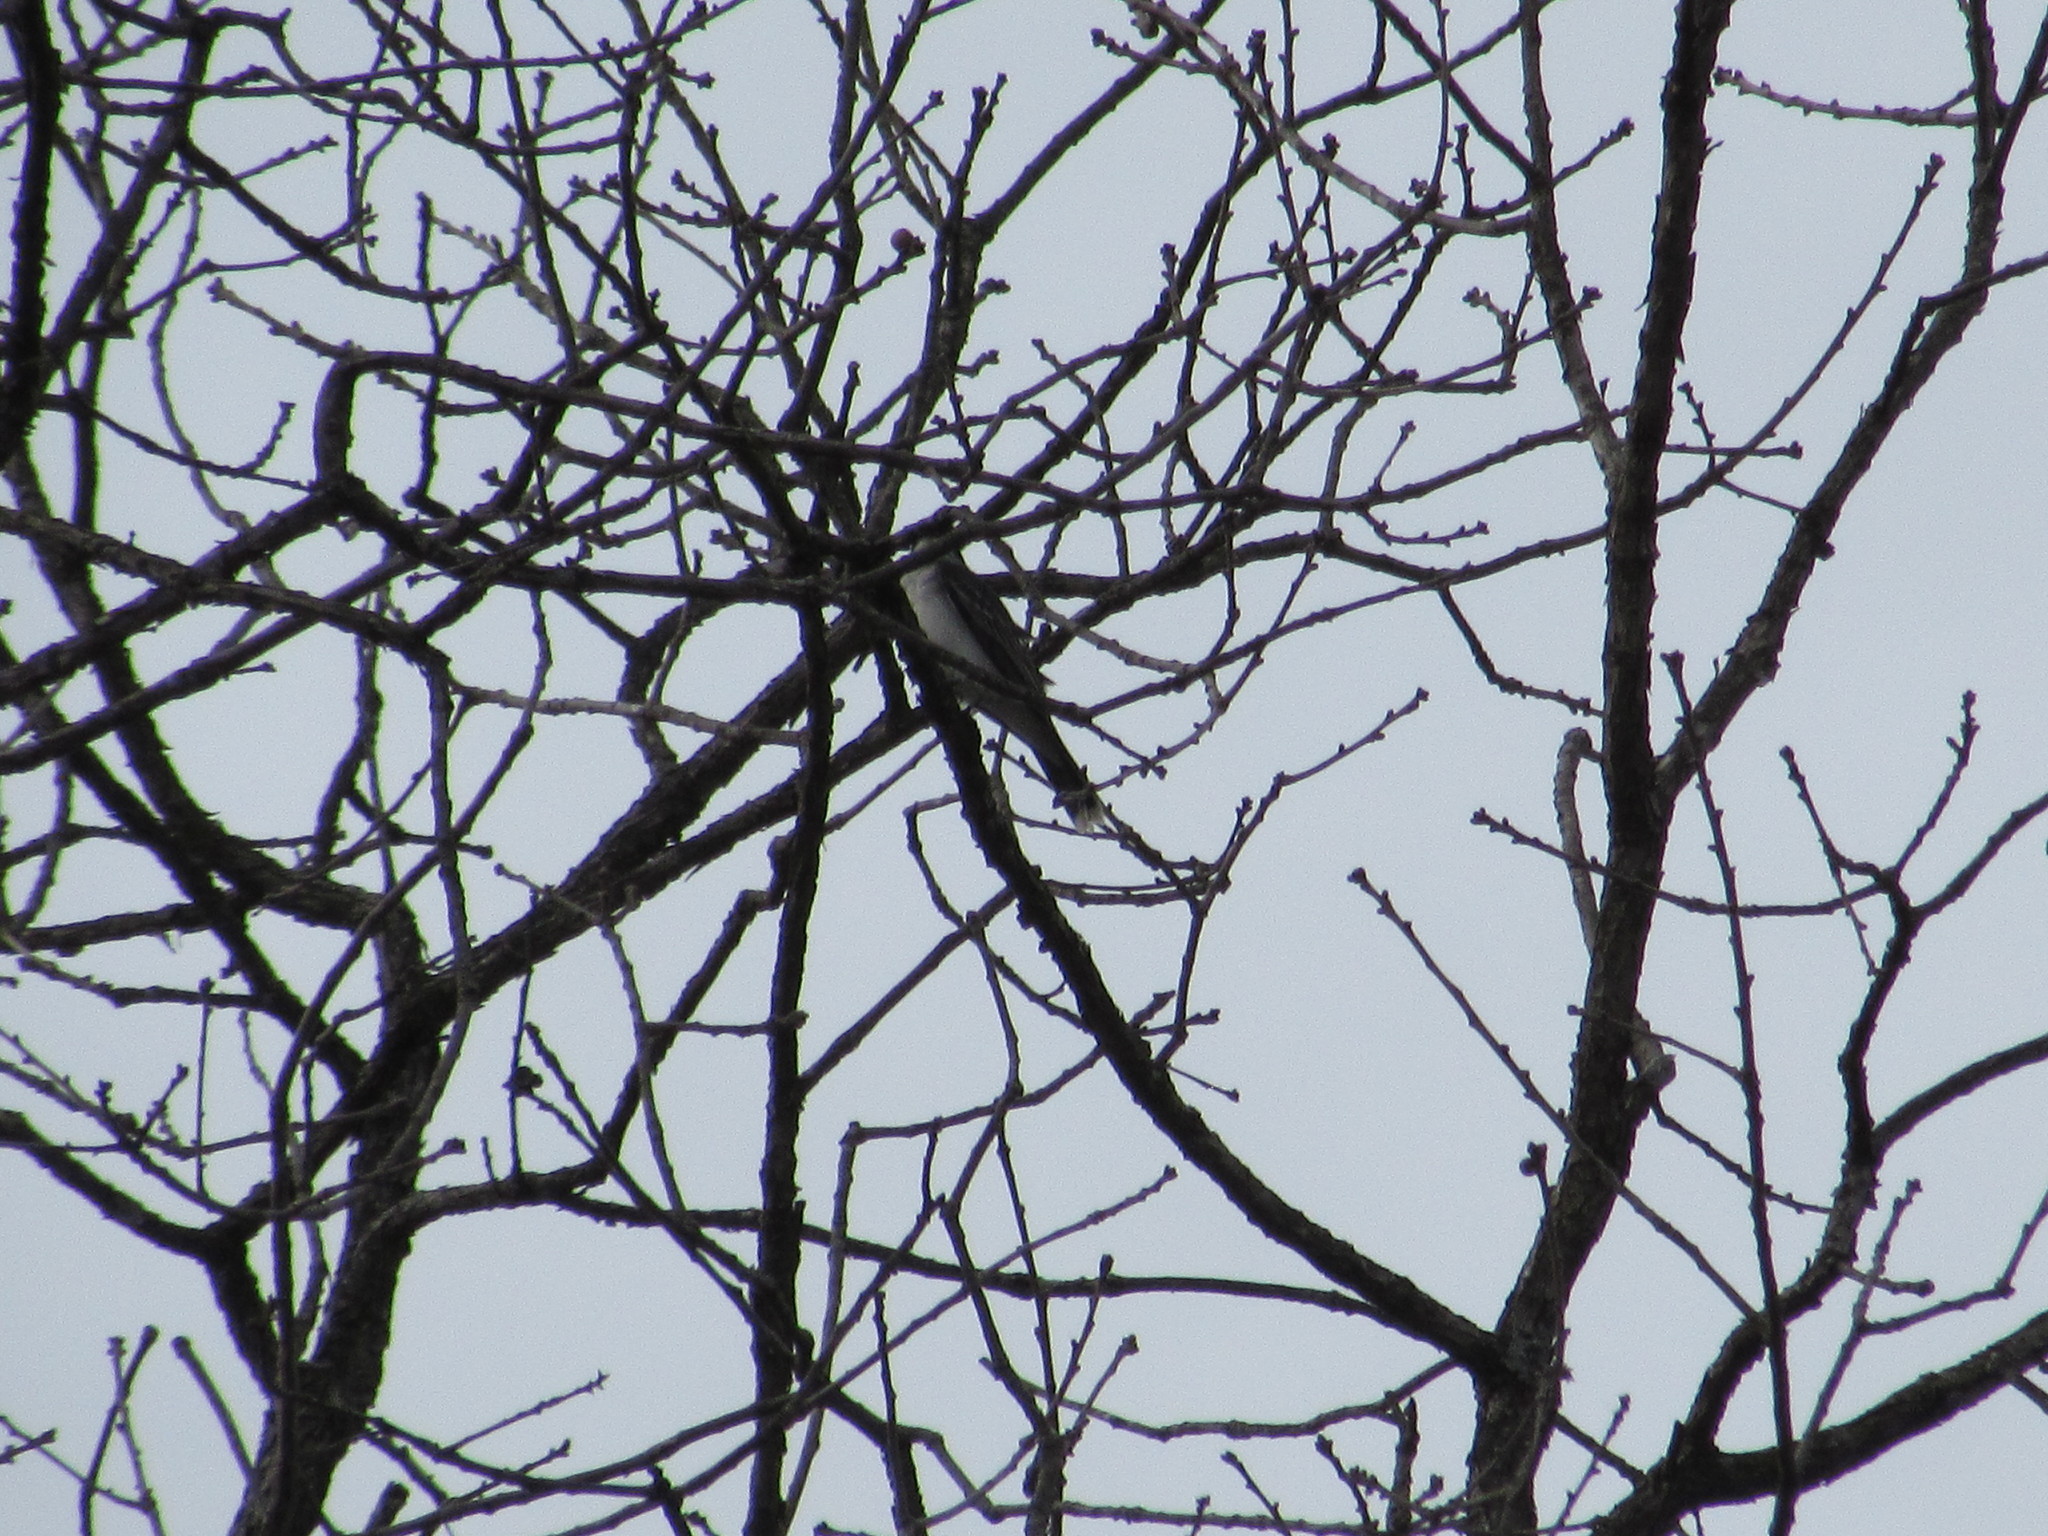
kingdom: Animalia
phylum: Chordata
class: Aves
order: Passeriformes
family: Tyrannidae
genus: Tyrannus
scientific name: Tyrannus tyrannus
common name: Eastern kingbird
